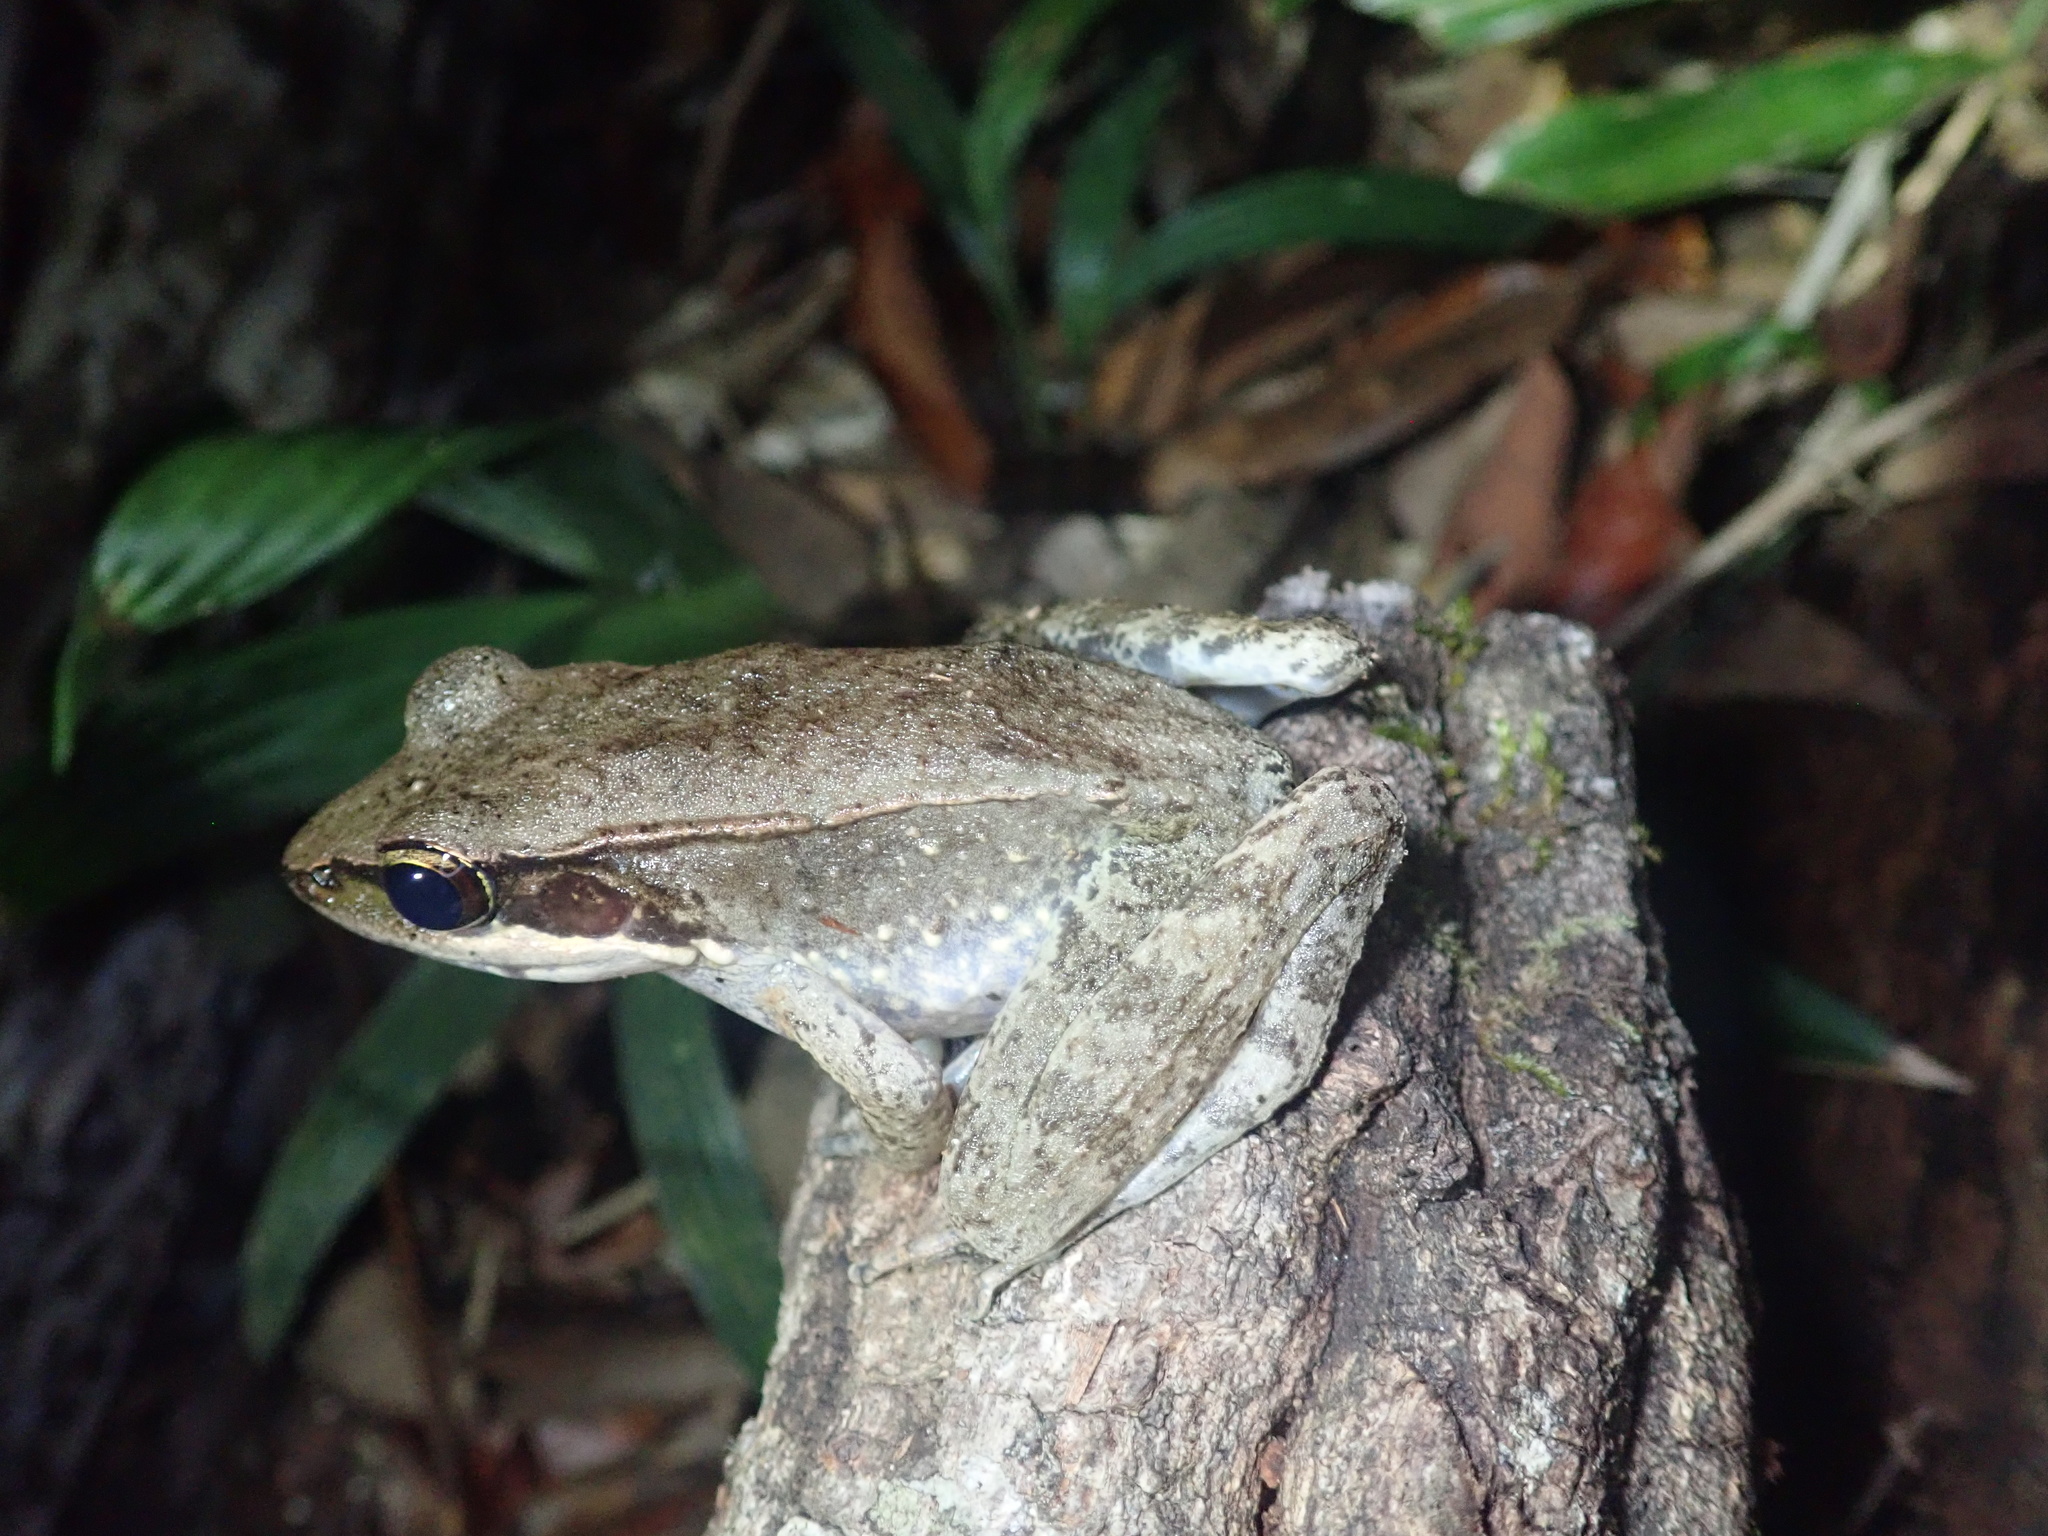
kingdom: Animalia
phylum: Chordata
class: Amphibia
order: Anura
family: Ranidae
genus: Papurana
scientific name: Papurana daemeli
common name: Arhem rana
